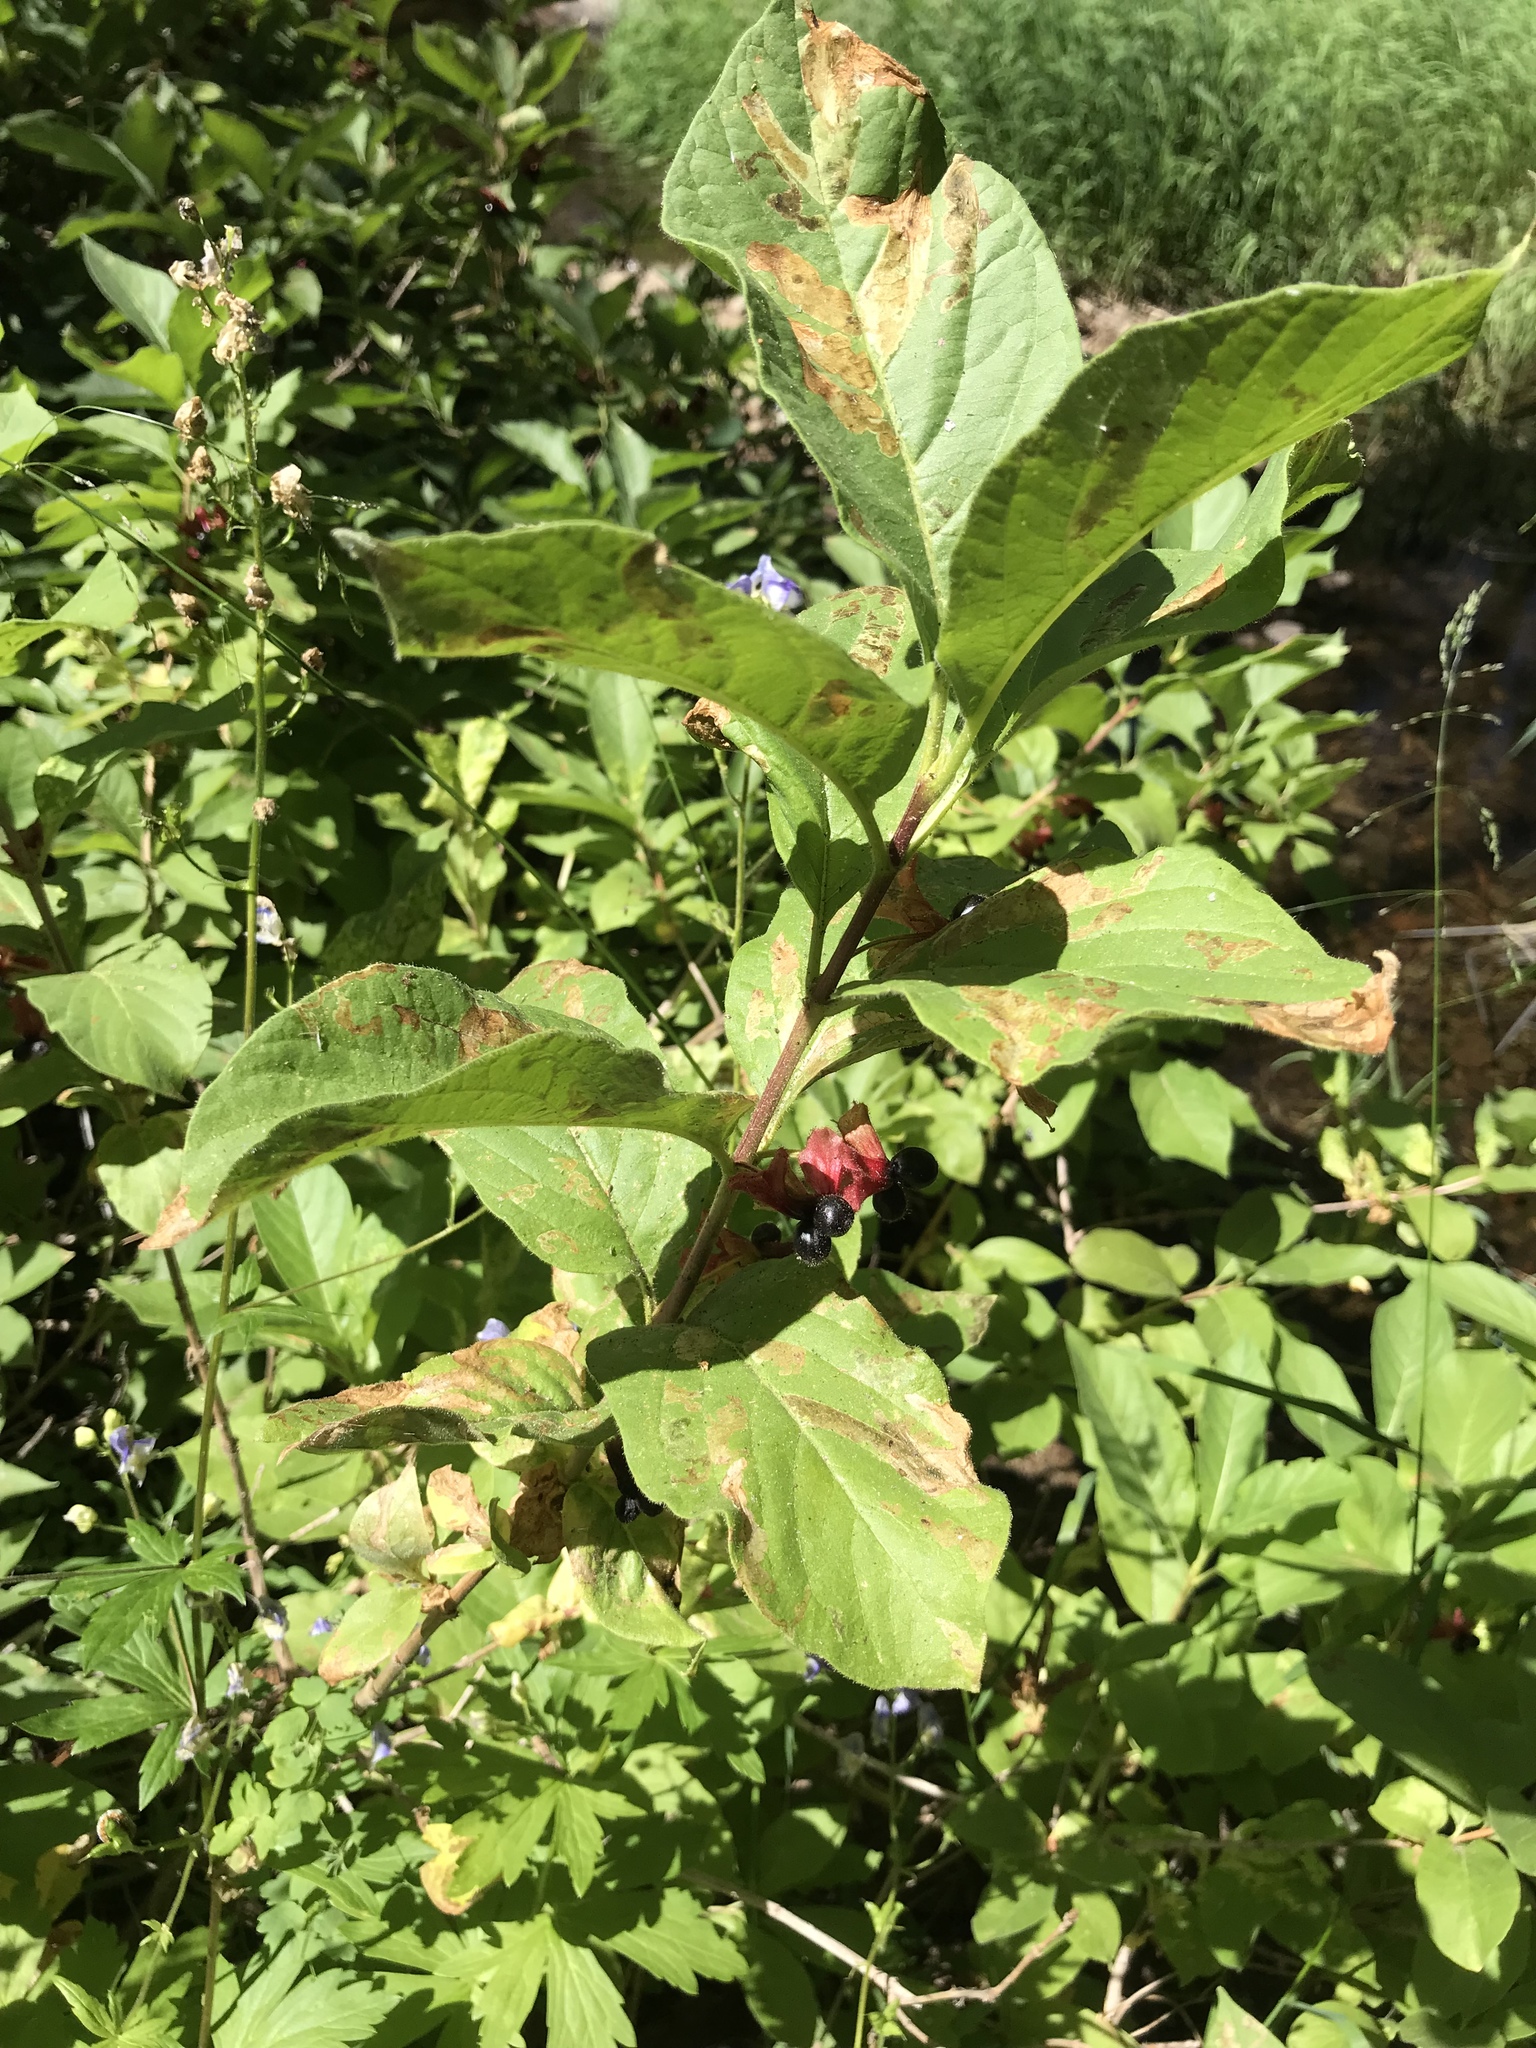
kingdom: Plantae
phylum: Tracheophyta
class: Magnoliopsida
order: Dipsacales
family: Caprifoliaceae
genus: Lonicera
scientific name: Lonicera involucrata
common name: Californian honeysuckle
